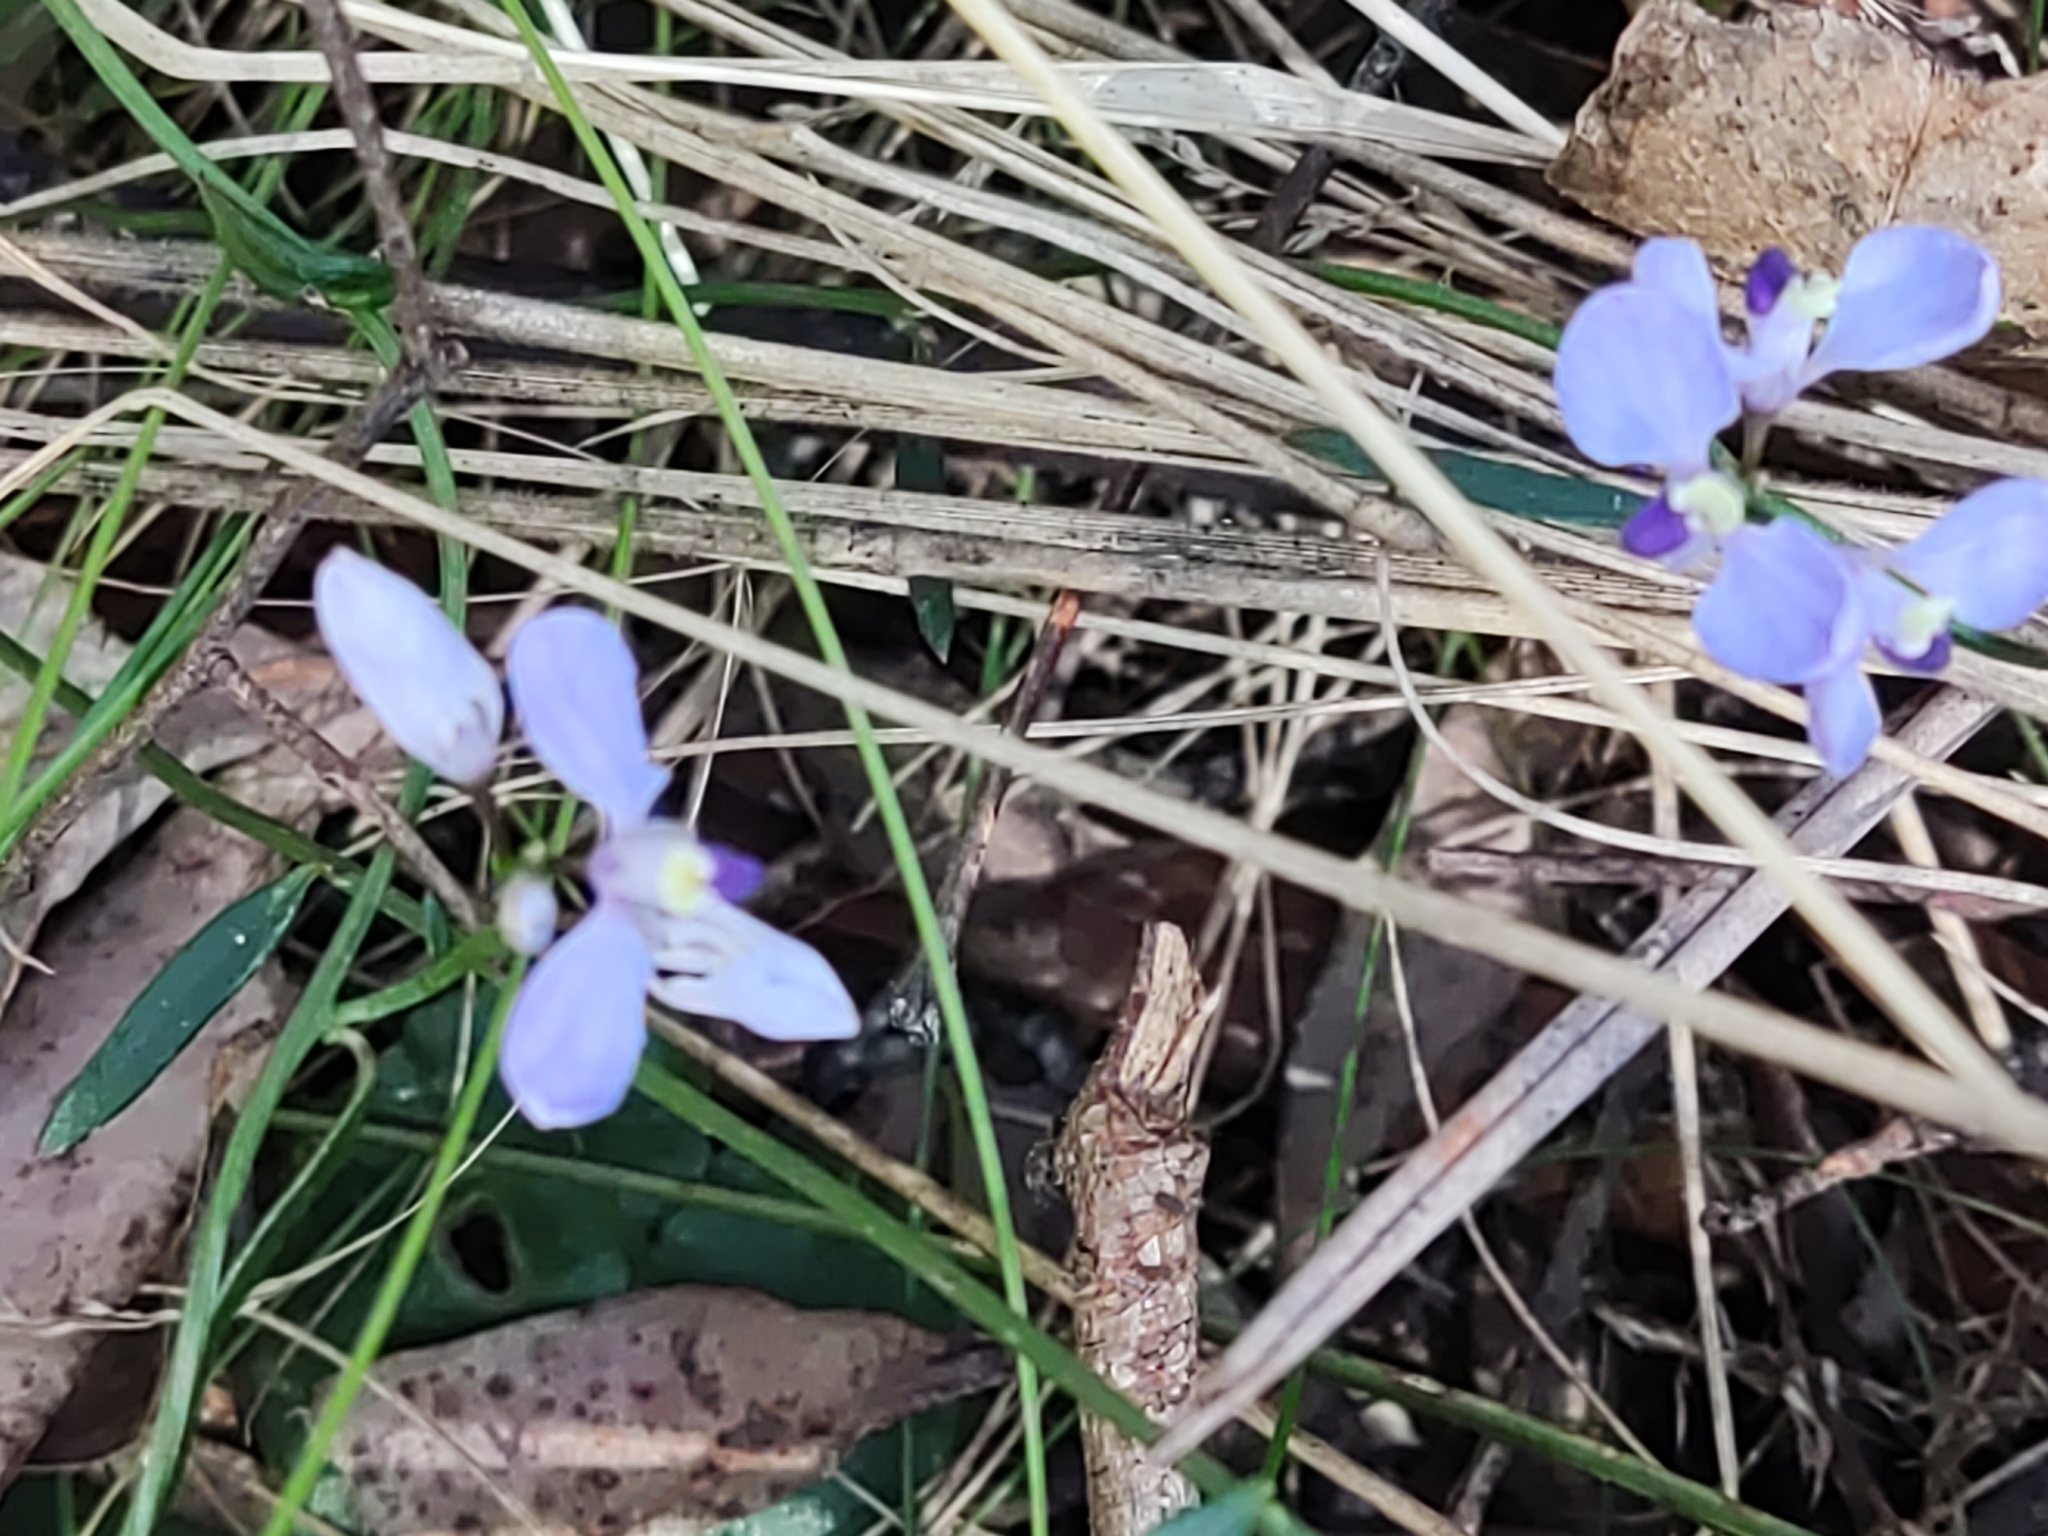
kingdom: Plantae
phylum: Tracheophyta
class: Magnoliopsida
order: Fabales
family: Polygalaceae
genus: Comesperma
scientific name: Comesperma volubile
